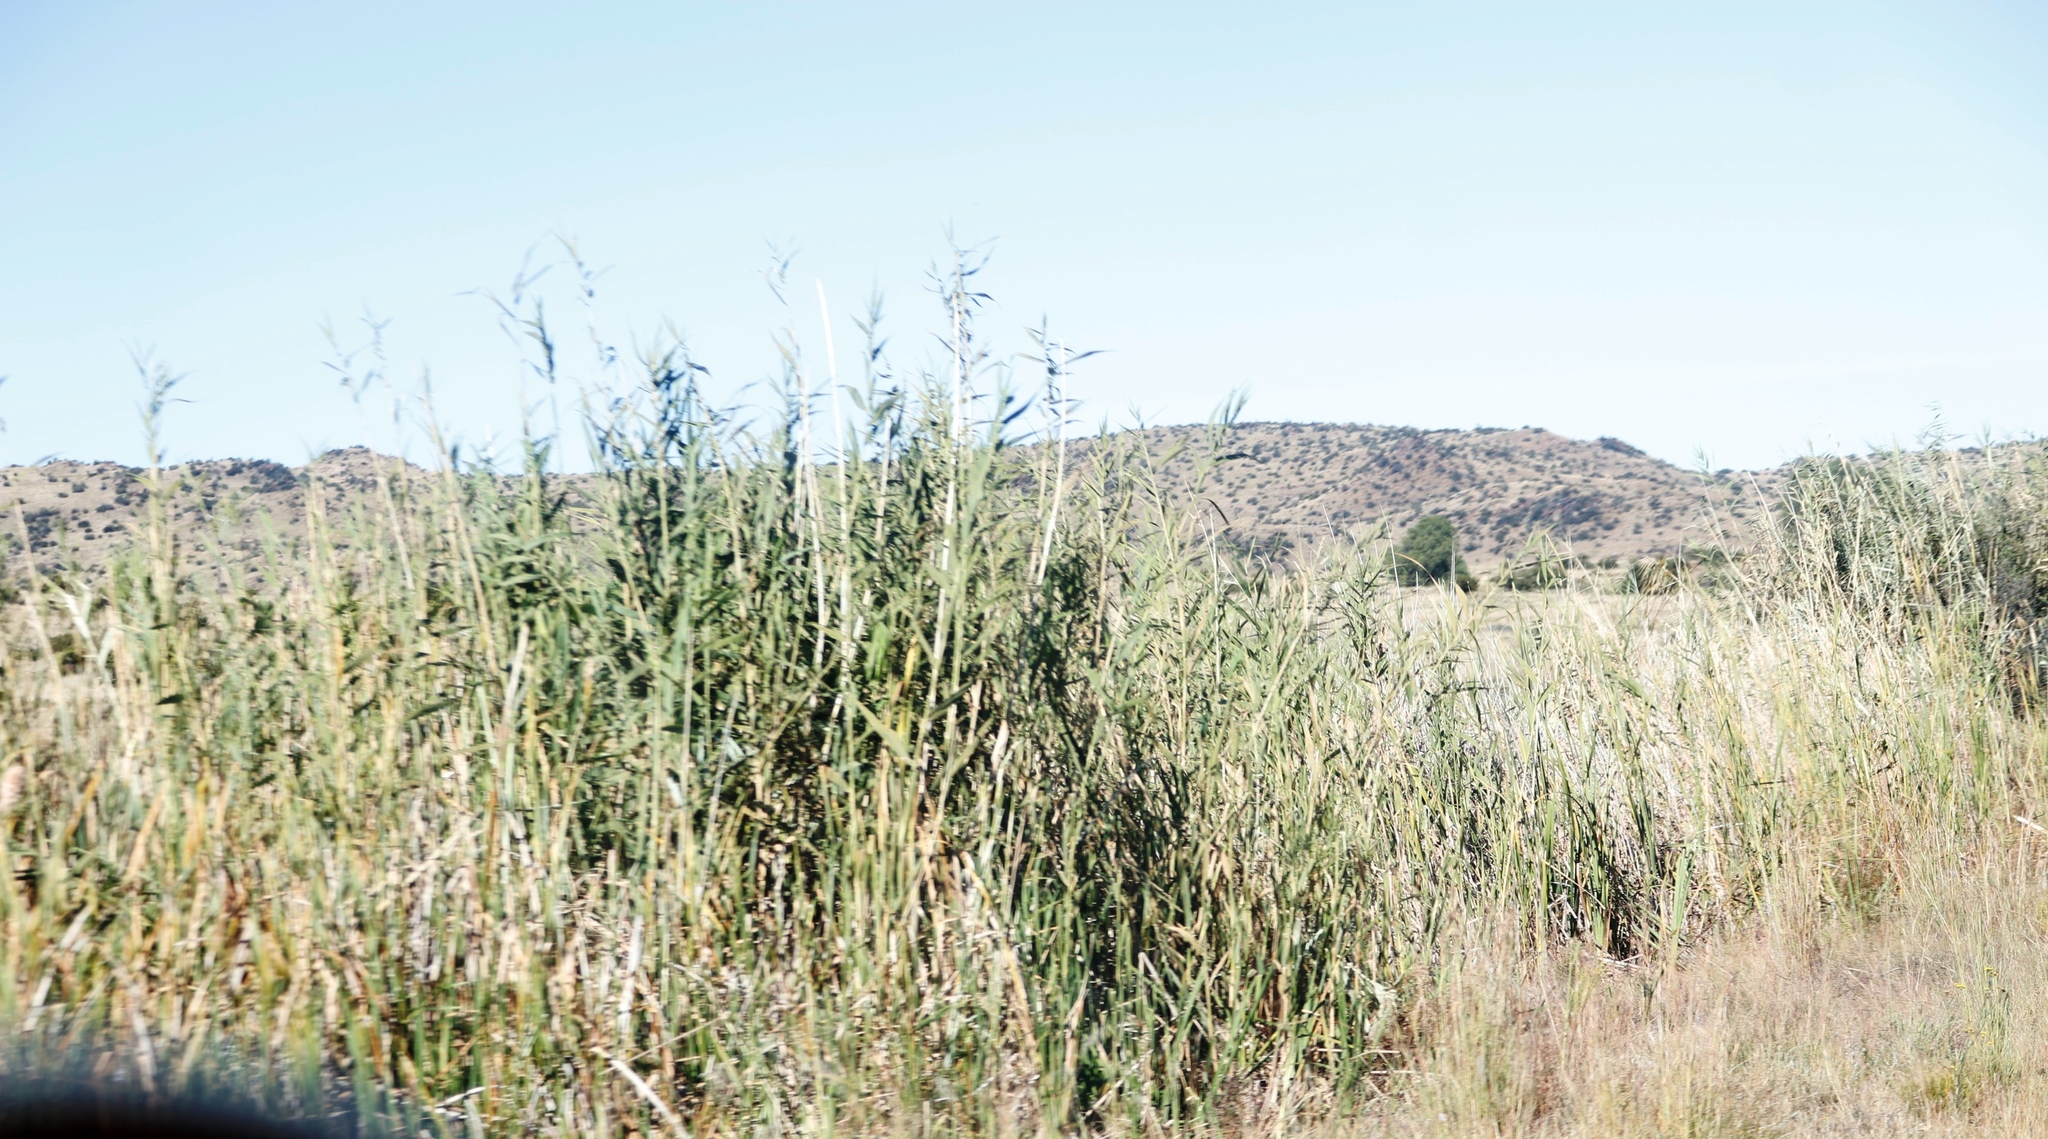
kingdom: Plantae
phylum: Tracheophyta
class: Liliopsida
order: Poales
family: Poaceae
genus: Phragmites
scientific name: Phragmites australis
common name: Common reed
